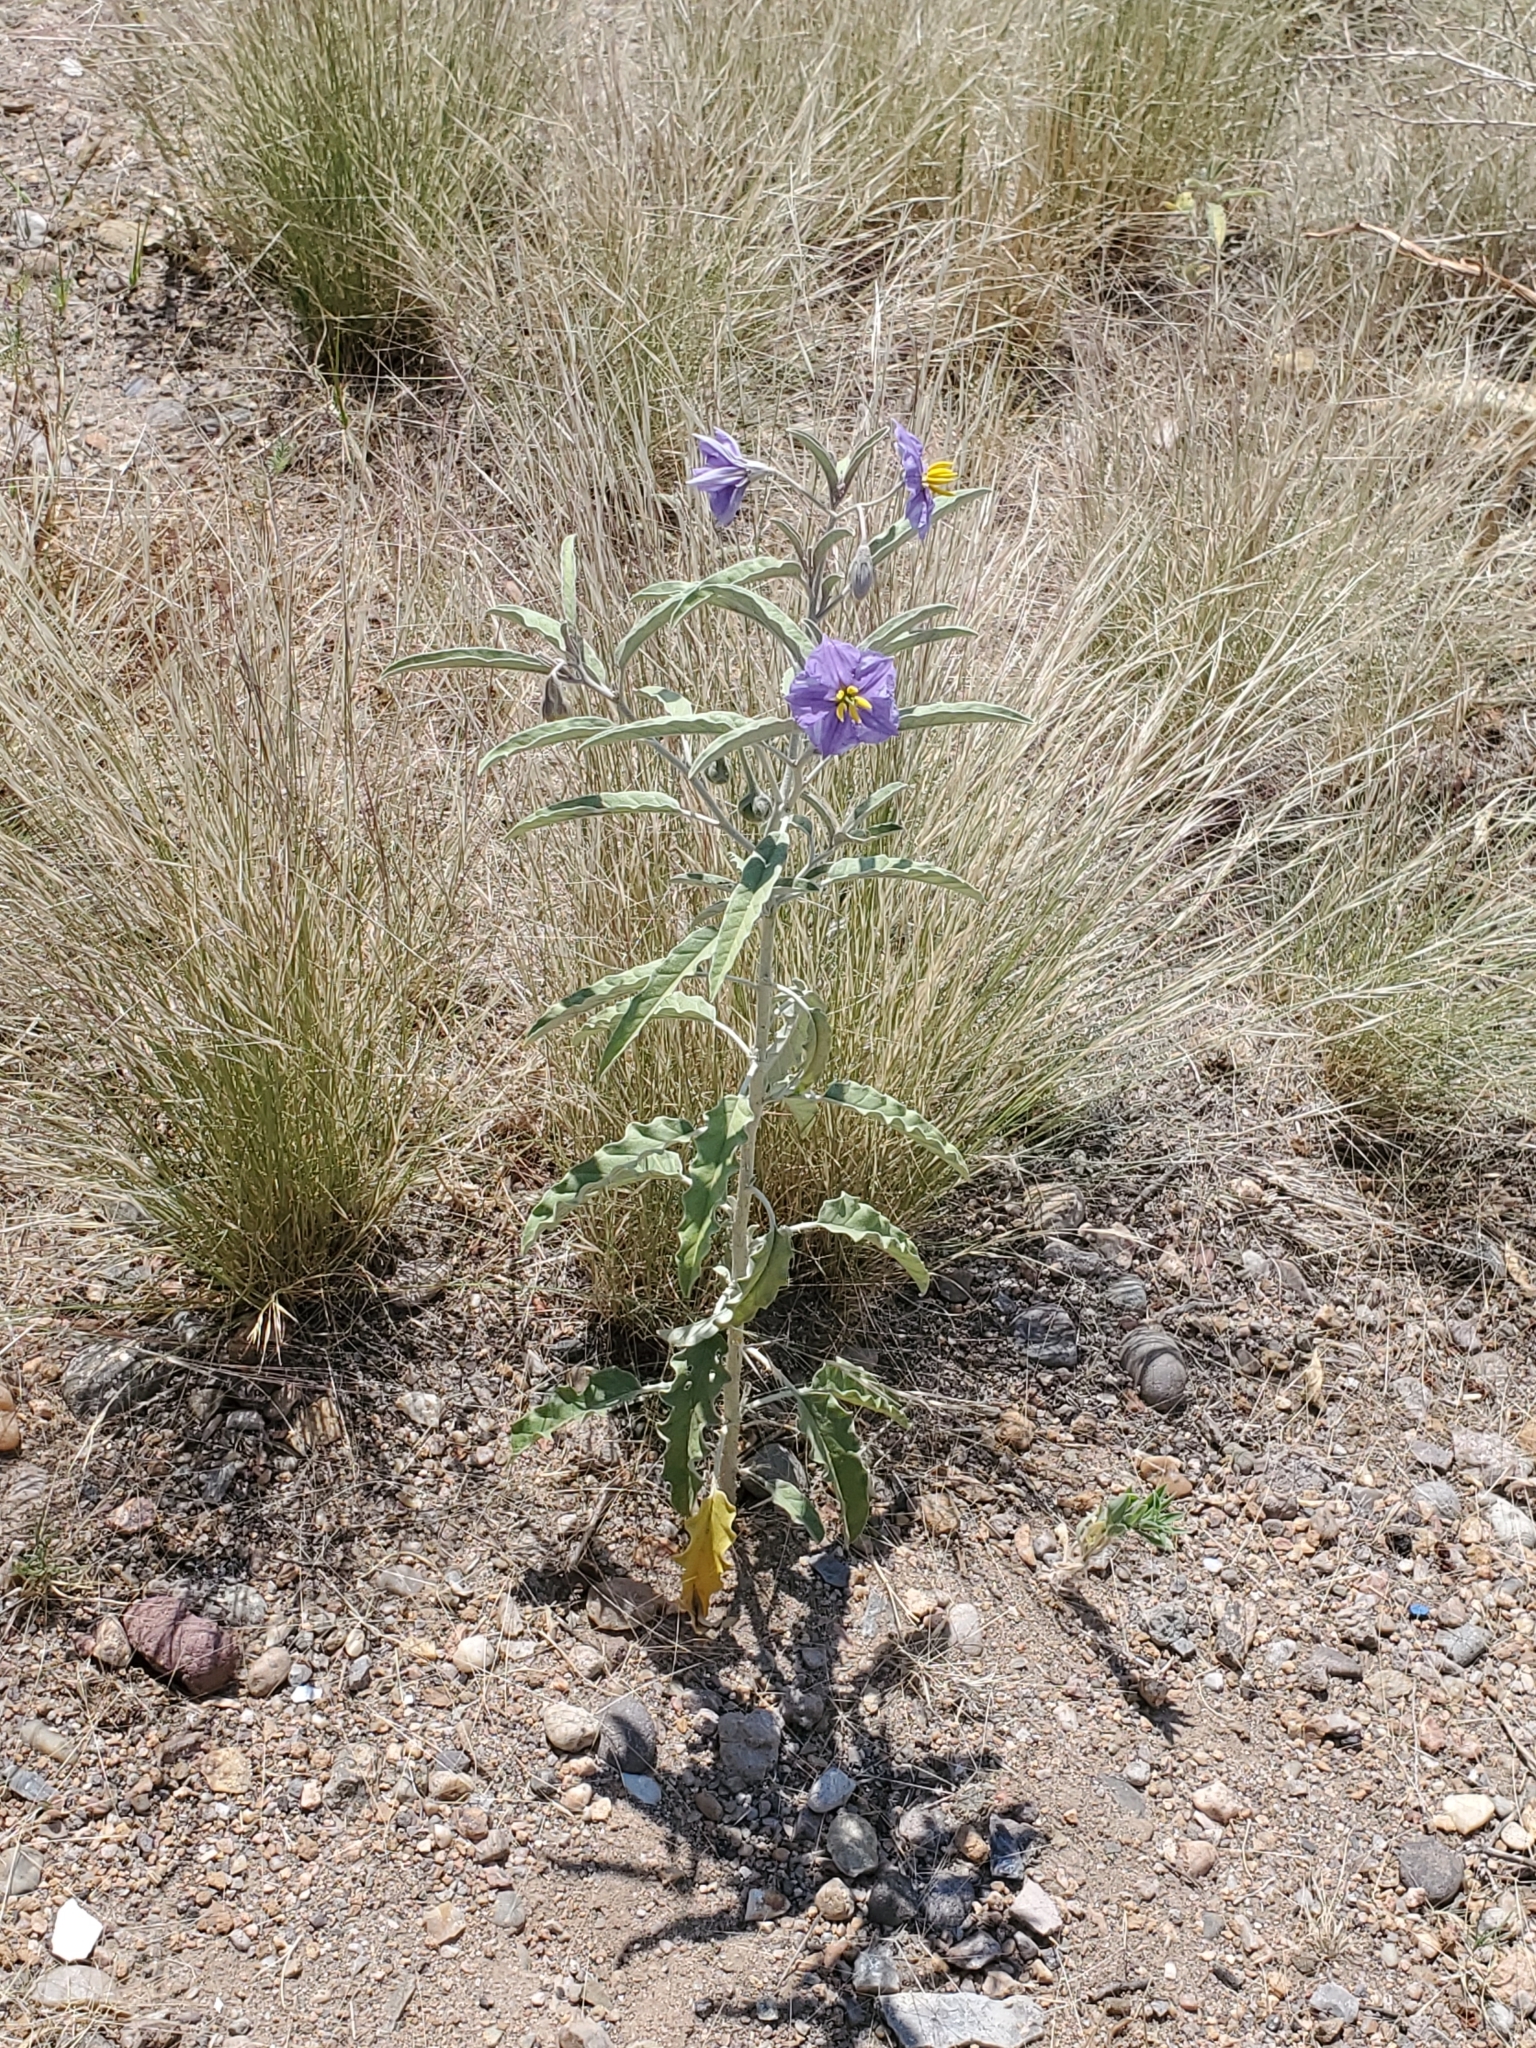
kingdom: Plantae
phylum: Tracheophyta
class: Magnoliopsida
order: Solanales
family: Solanaceae
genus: Solanum
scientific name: Solanum elaeagnifolium
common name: Silverleaf nightshade
